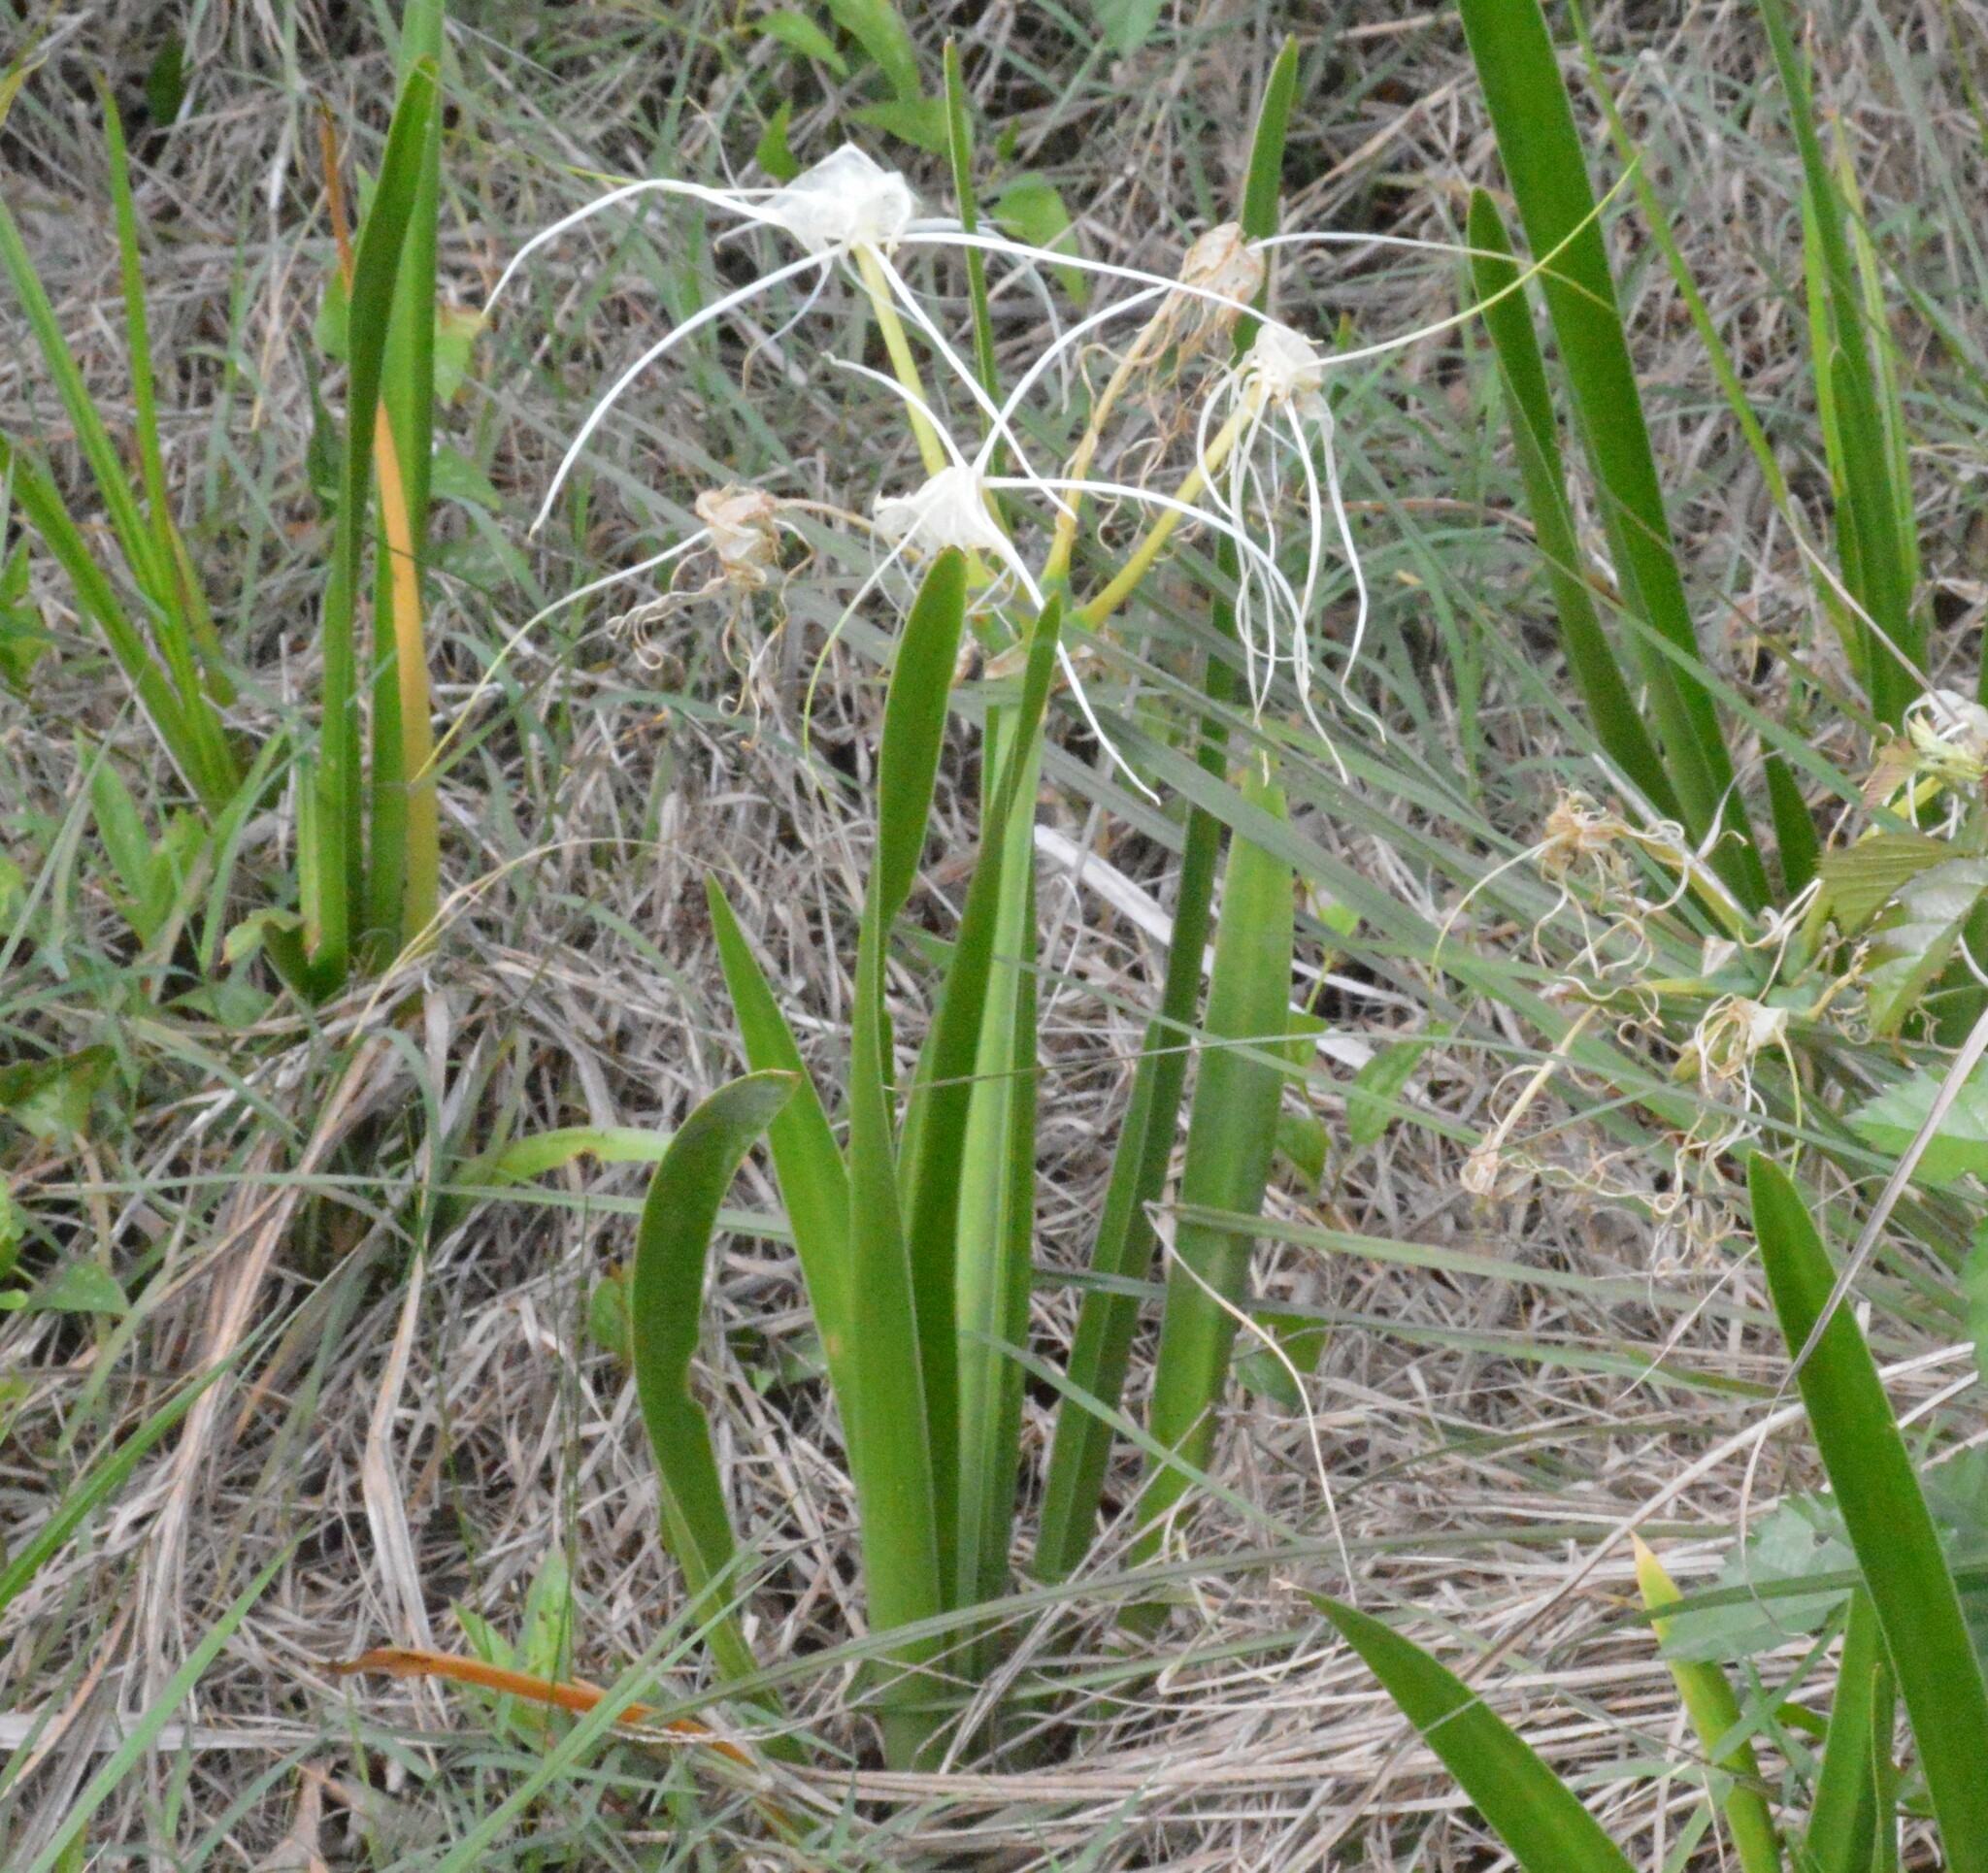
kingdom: Plantae
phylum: Tracheophyta
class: Liliopsida
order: Asparagales
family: Amaryllidaceae
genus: Hymenocallis
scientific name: Hymenocallis liriosme
